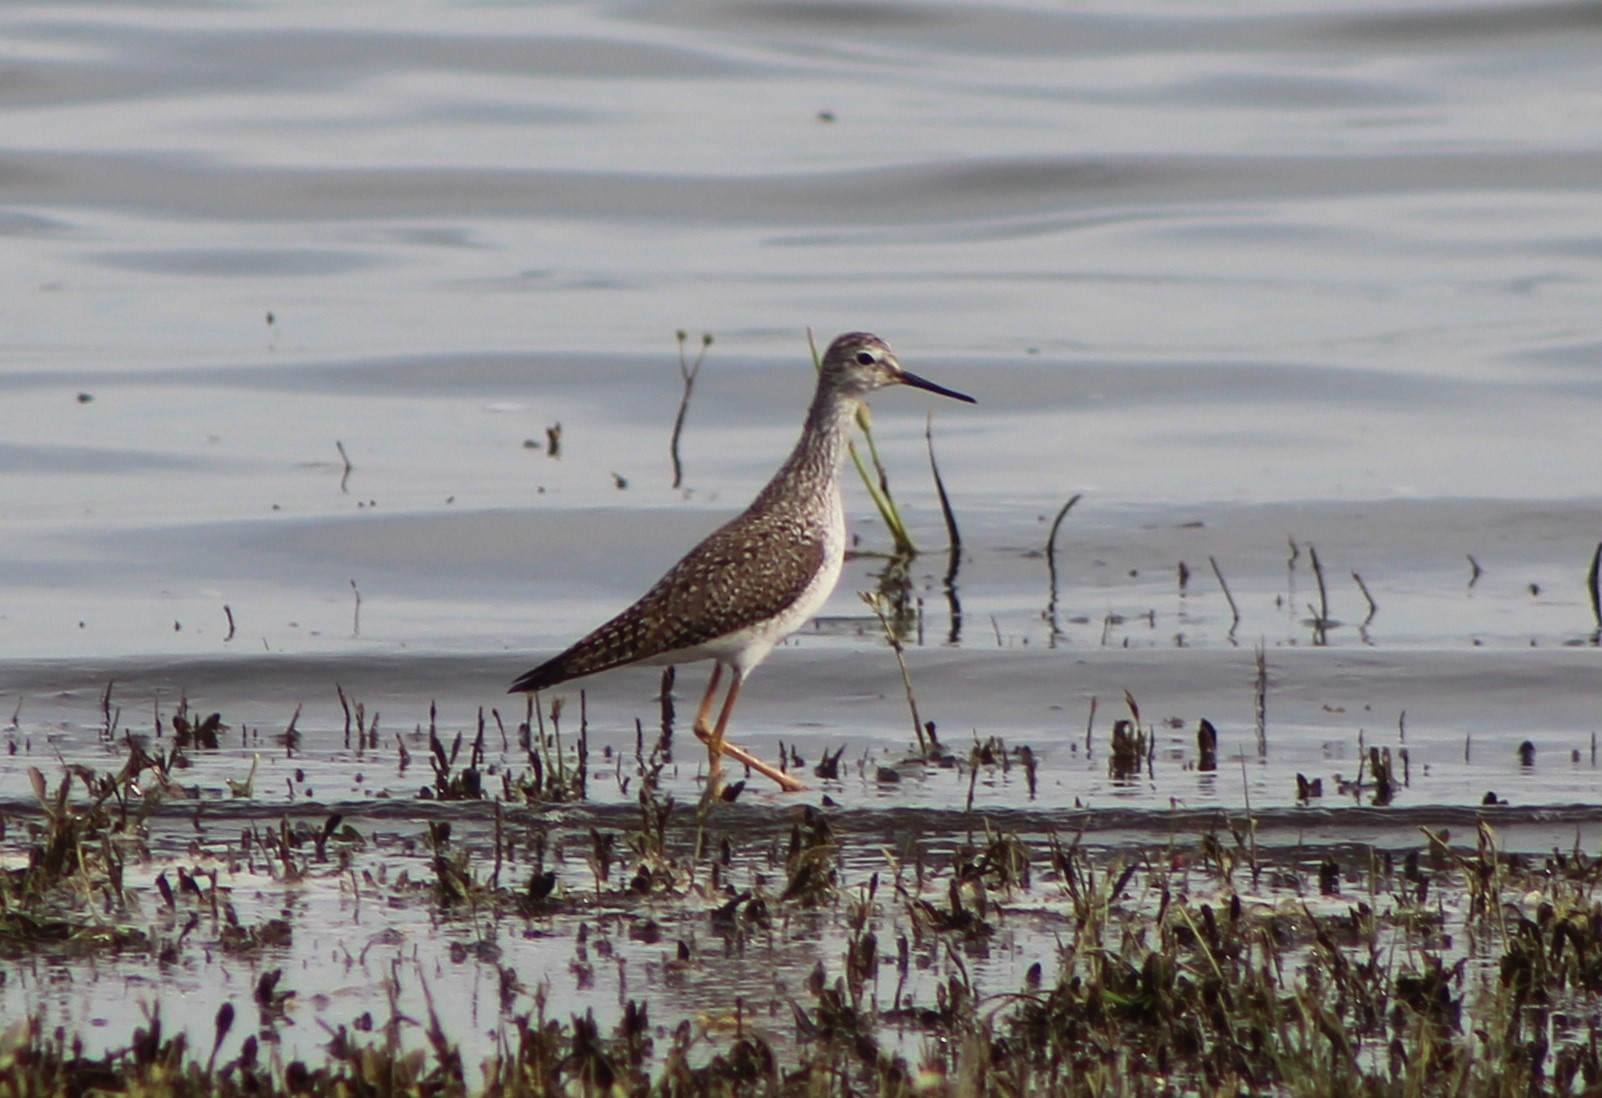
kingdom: Animalia
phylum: Chordata
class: Aves
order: Charadriiformes
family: Scolopacidae
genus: Tringa
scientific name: Tringa flavipes
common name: Lesser yellowlegs
